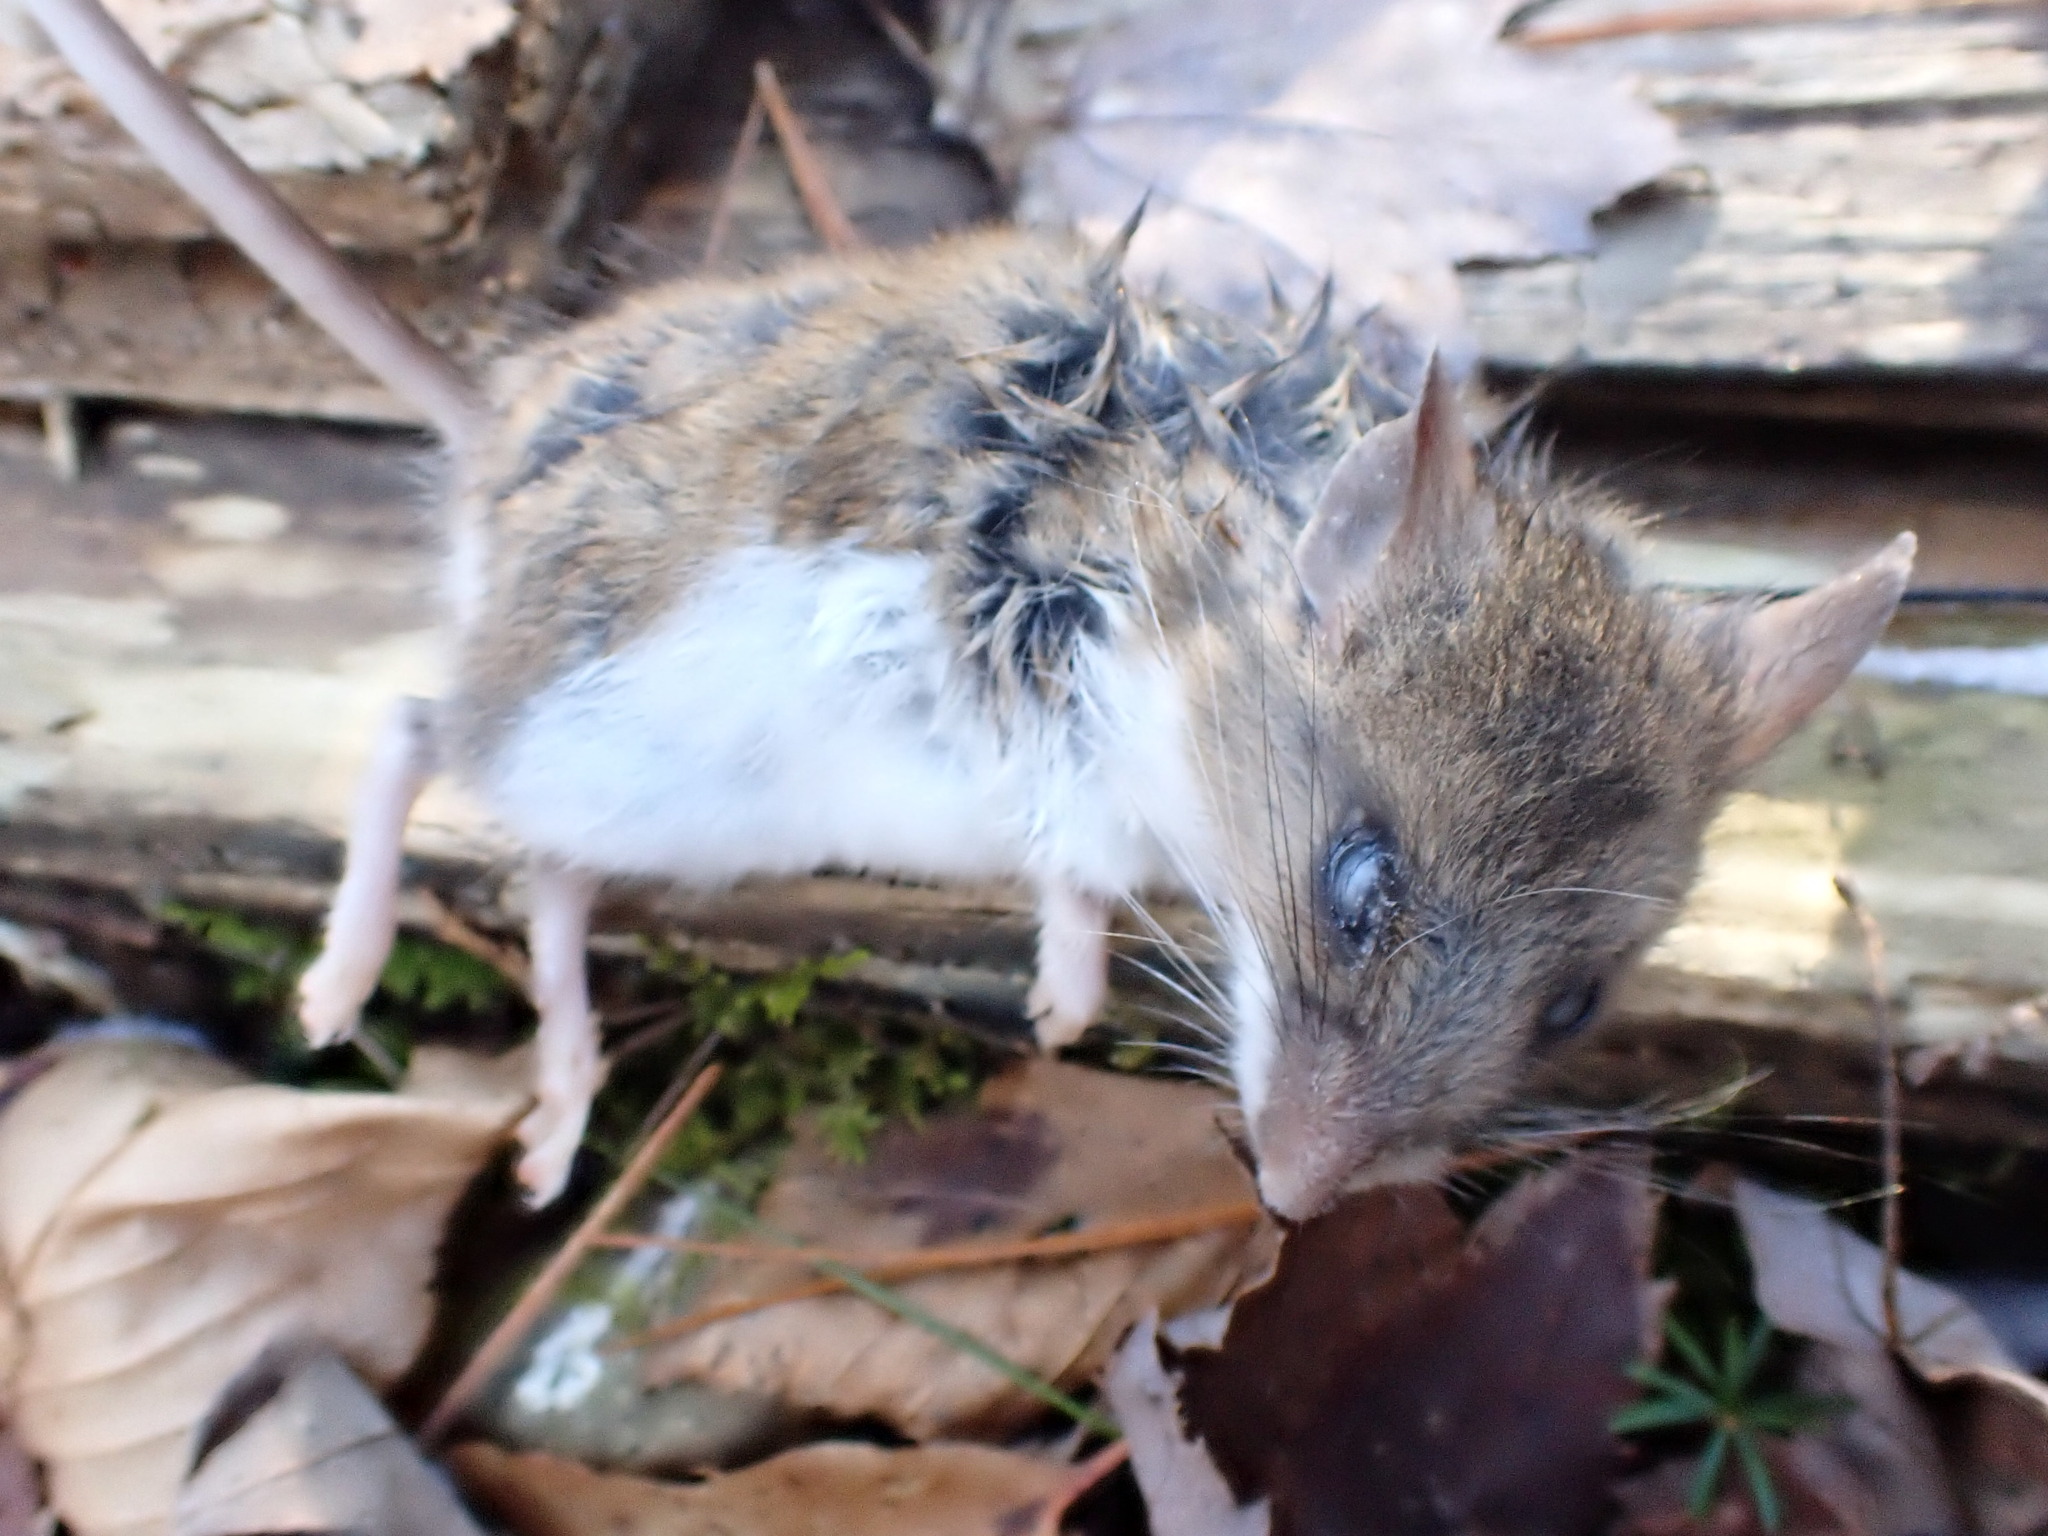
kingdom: Animalia
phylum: Chordata
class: Mammalia
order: Rodentia
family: Cricetidae
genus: Peromyscus
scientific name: Peromyscus leucopus
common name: White-footed deermouse
